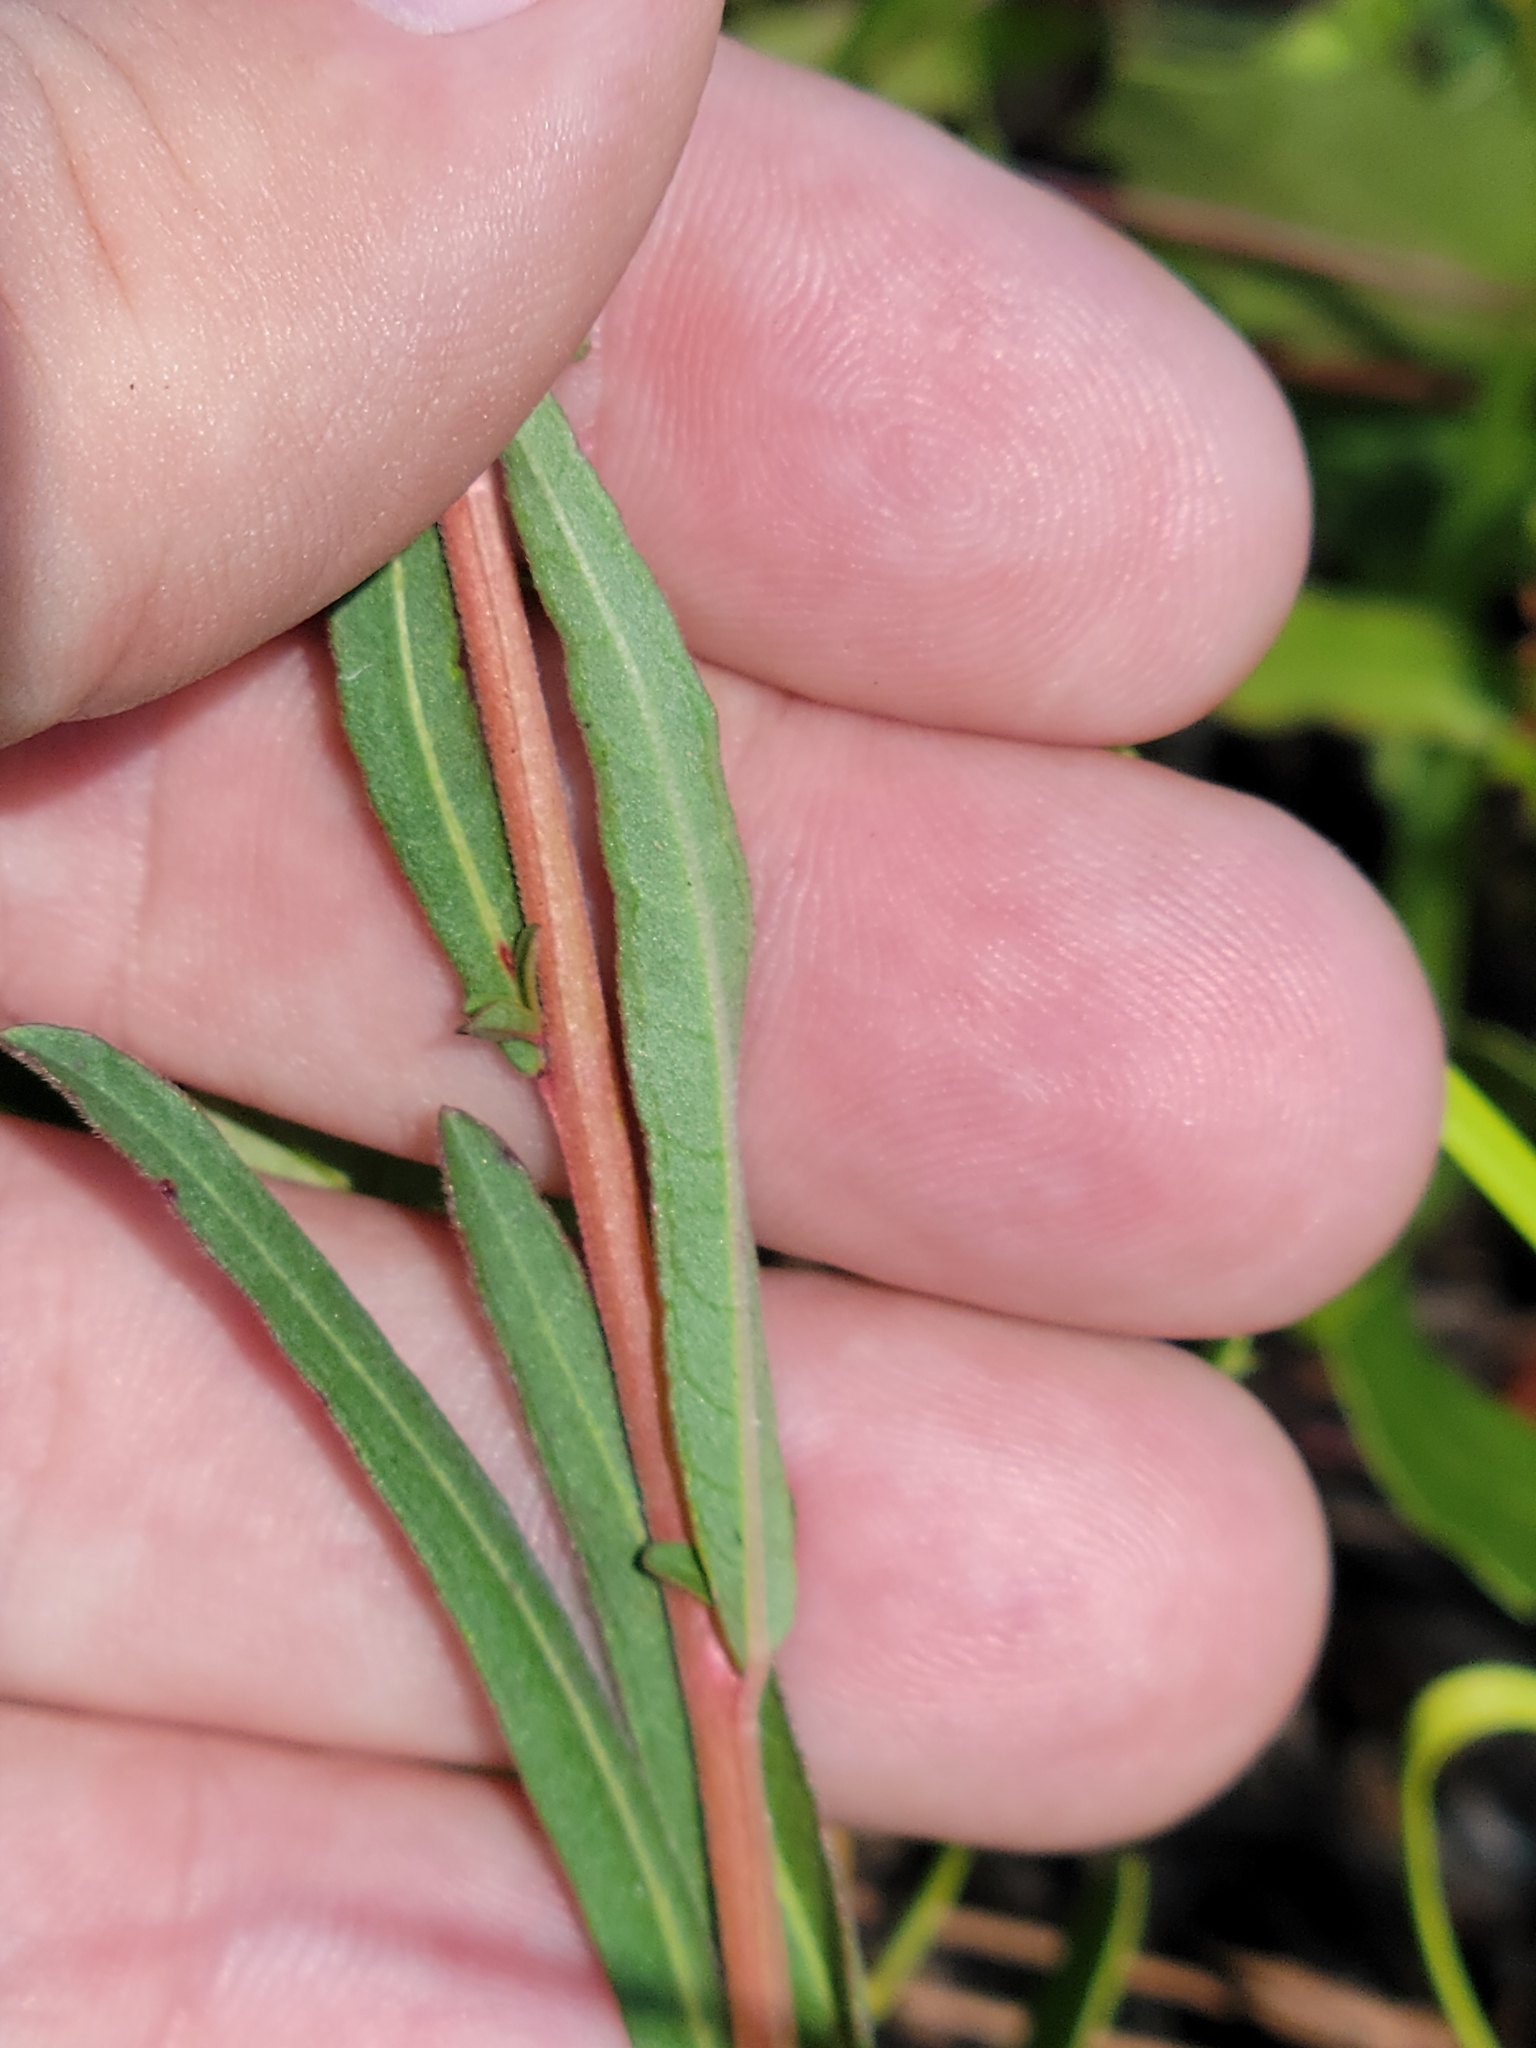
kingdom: Plantae
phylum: Tracheophyta
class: Magnoliopsida
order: Myrtales
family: Onagraceae
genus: Ludwigia
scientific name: Ludwigia maritima
